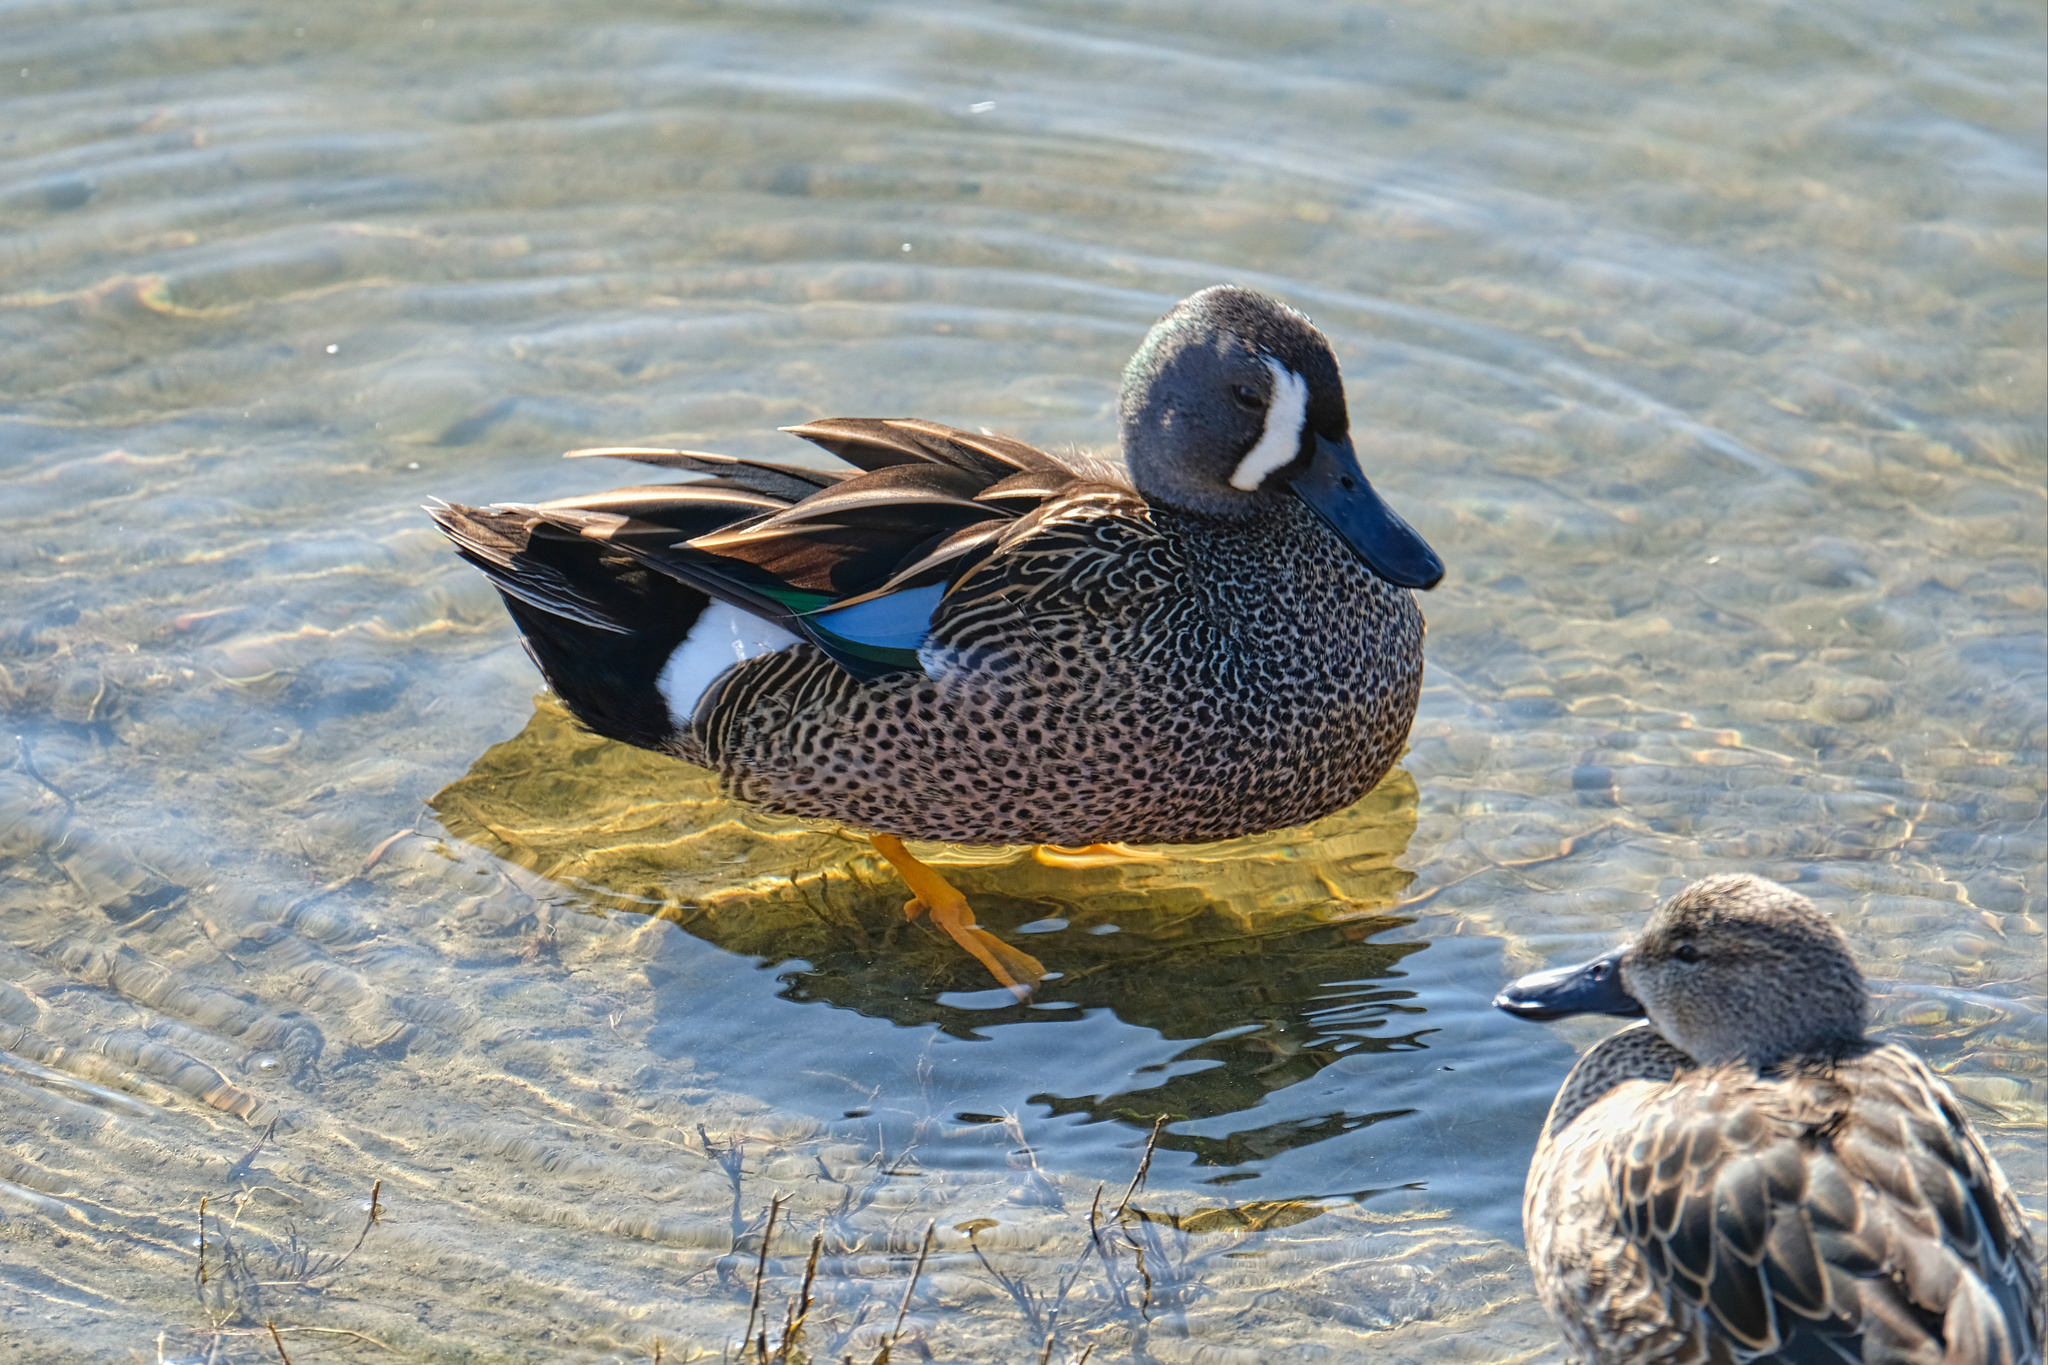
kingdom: Animalia
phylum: Chordata
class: Aves
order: Anseriformes
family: Anatidae
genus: Spatula
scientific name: Spatula discors
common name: Blue-winged teal
